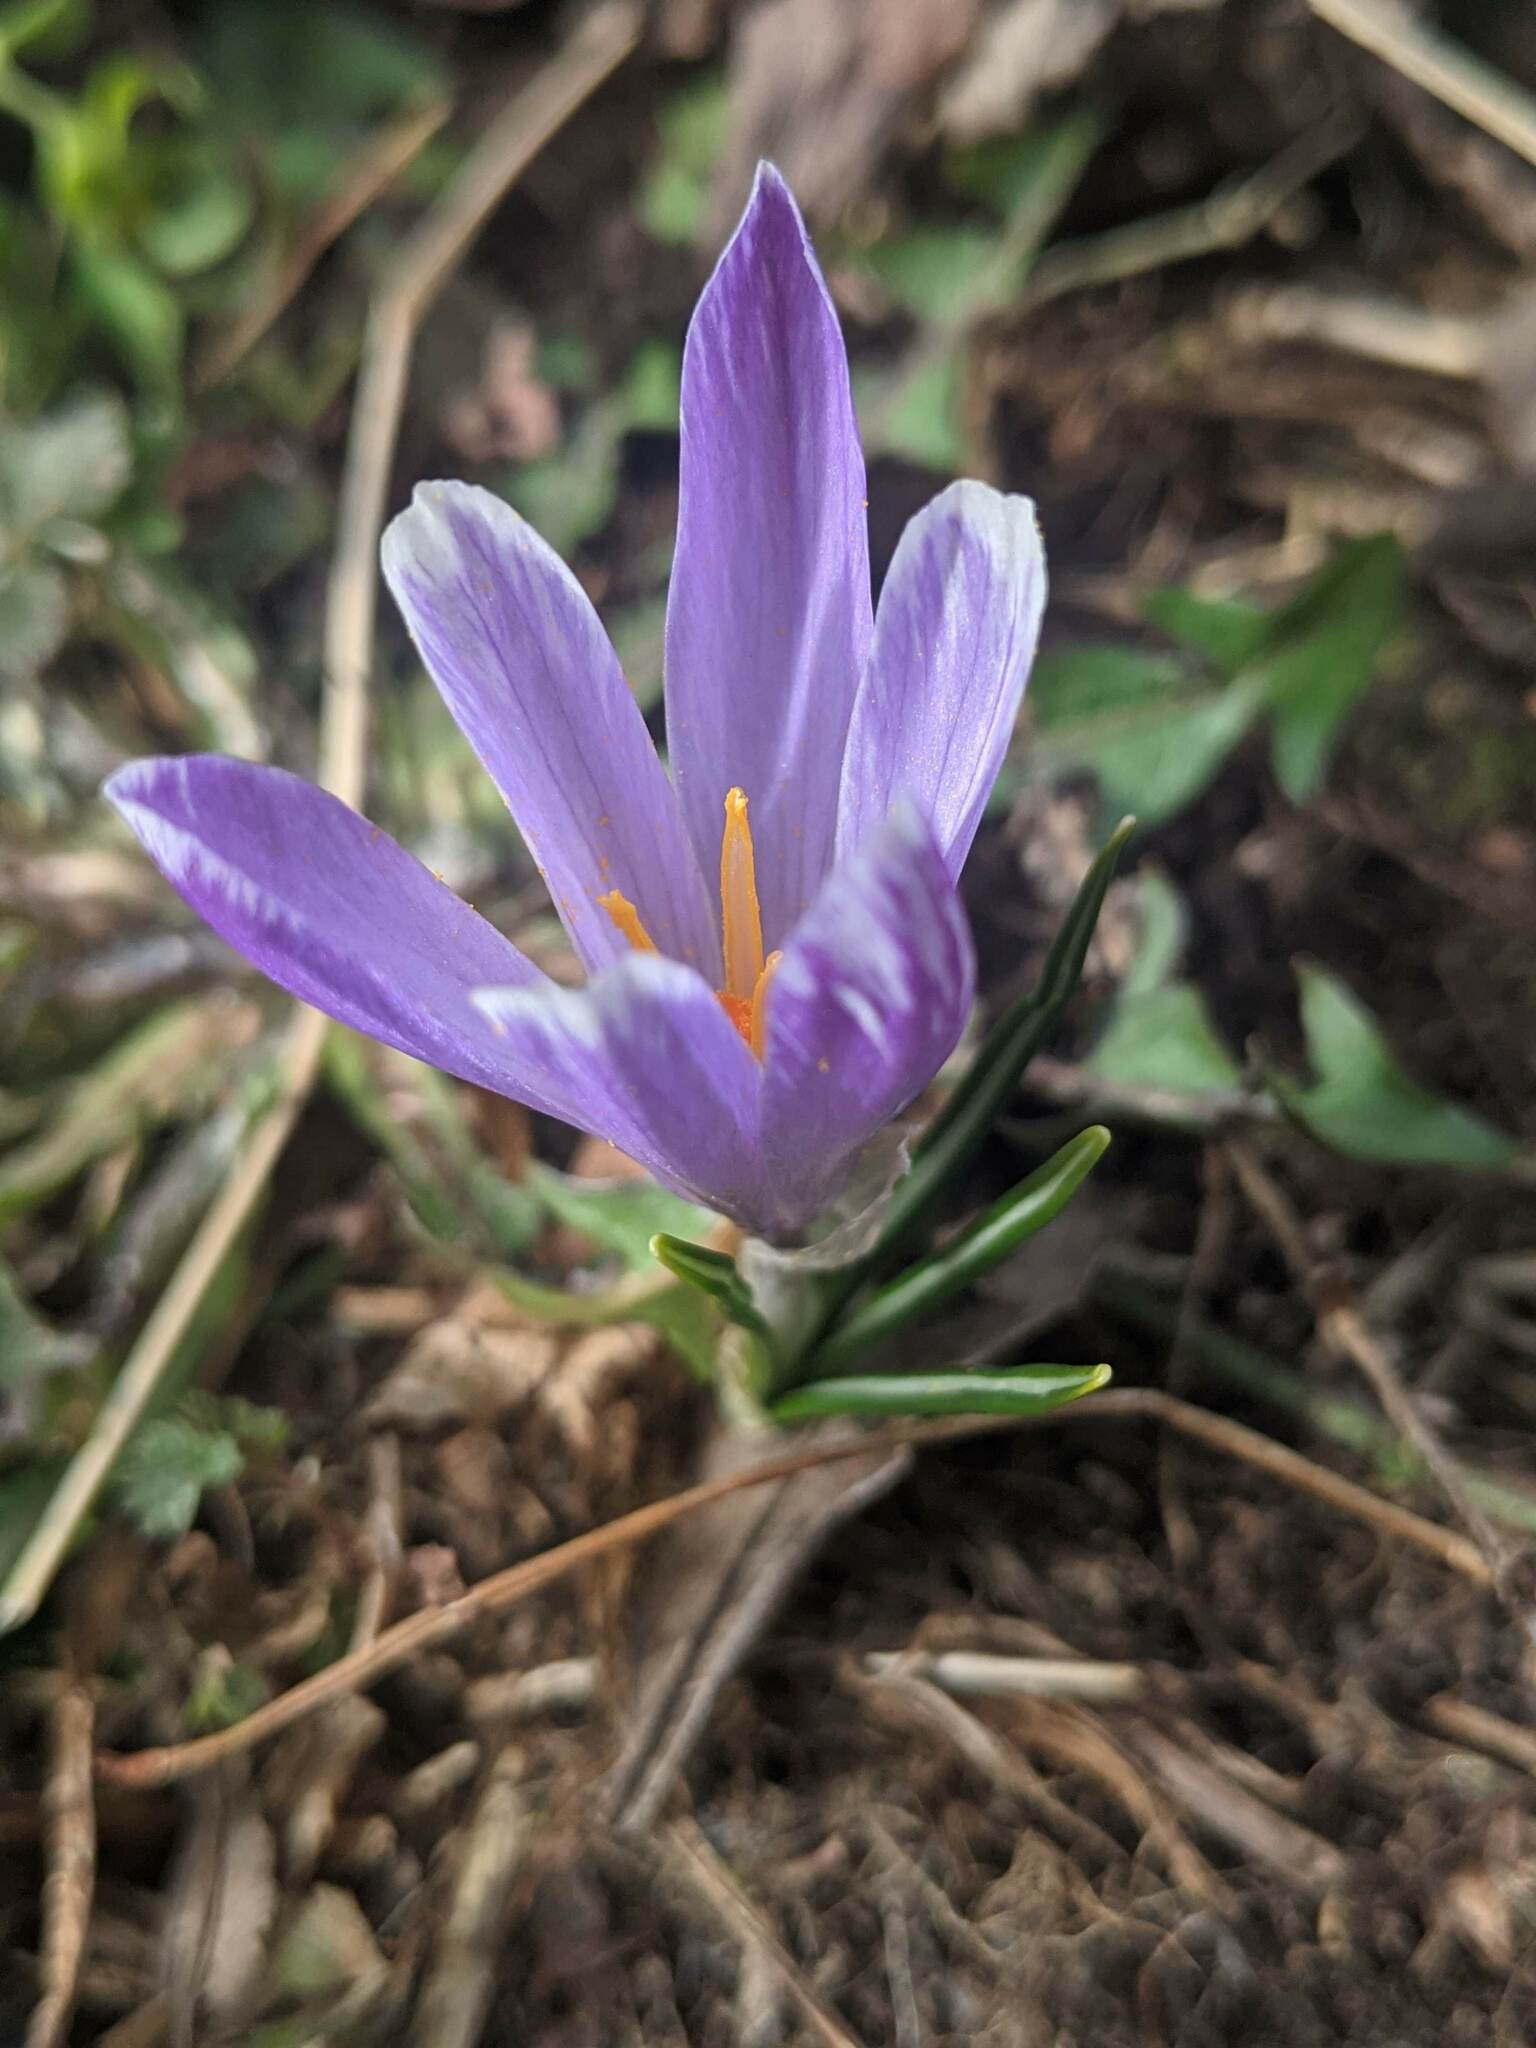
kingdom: Plantae
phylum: Tracheophyta
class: Liliopsida
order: Asparagales
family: Iridaceae
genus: Crocus
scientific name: Crocus biflorus
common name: Silvery crocus
